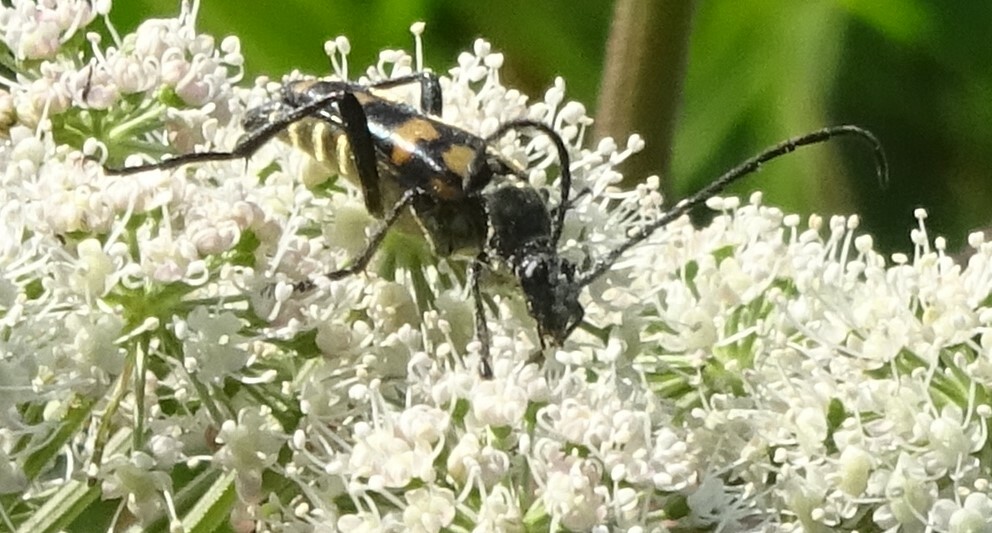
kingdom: Animalia
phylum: Arthropoda
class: Insecta
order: Coleoptera
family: Cerambycidae
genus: Leptura
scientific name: Leptura quadrifasciata
